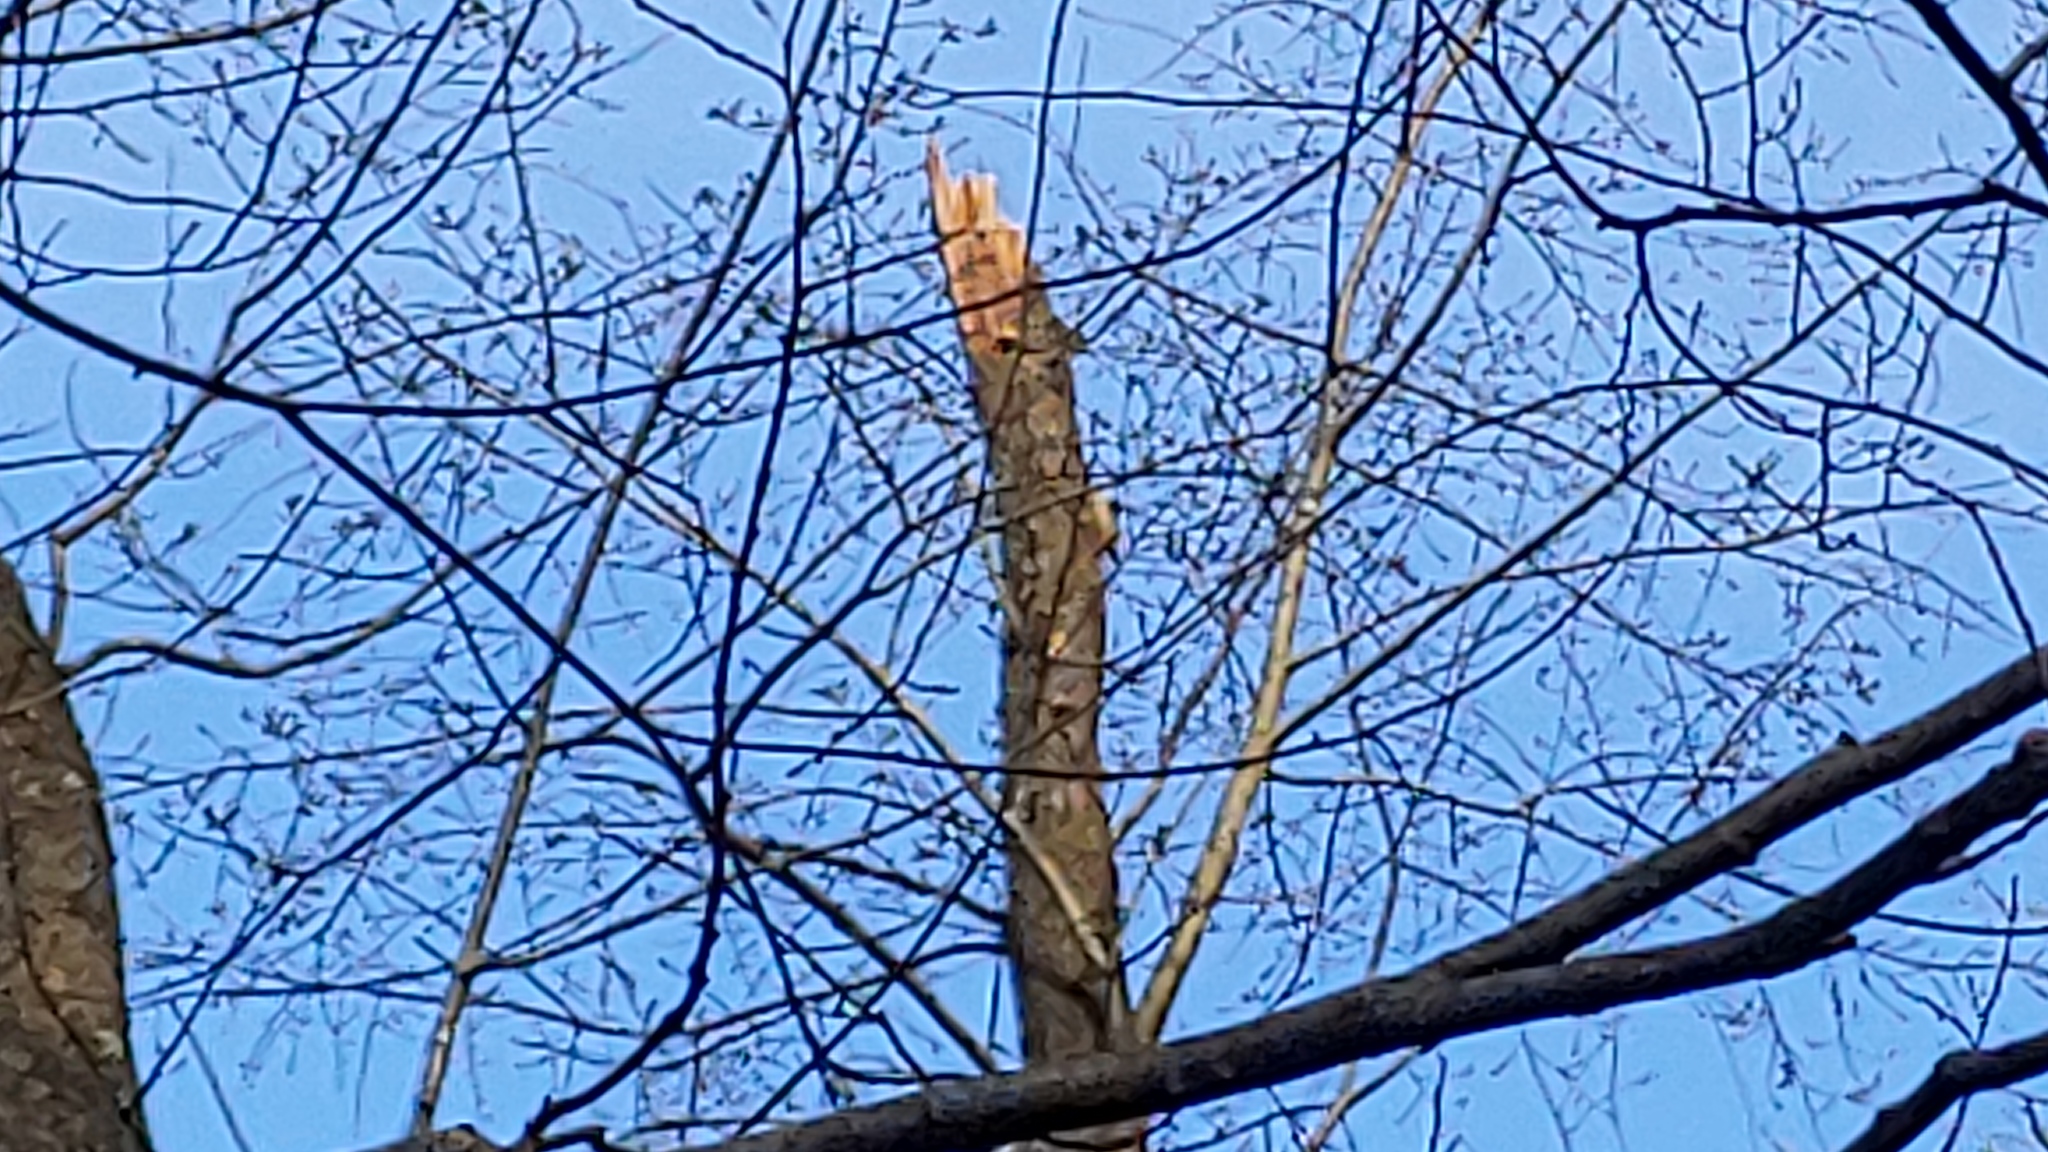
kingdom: Animalia
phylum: Chordata
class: Aves
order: Piciformes
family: Picidae
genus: Melanerpes
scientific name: Melanerpes carolinus
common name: Red-bellied woodpecker
